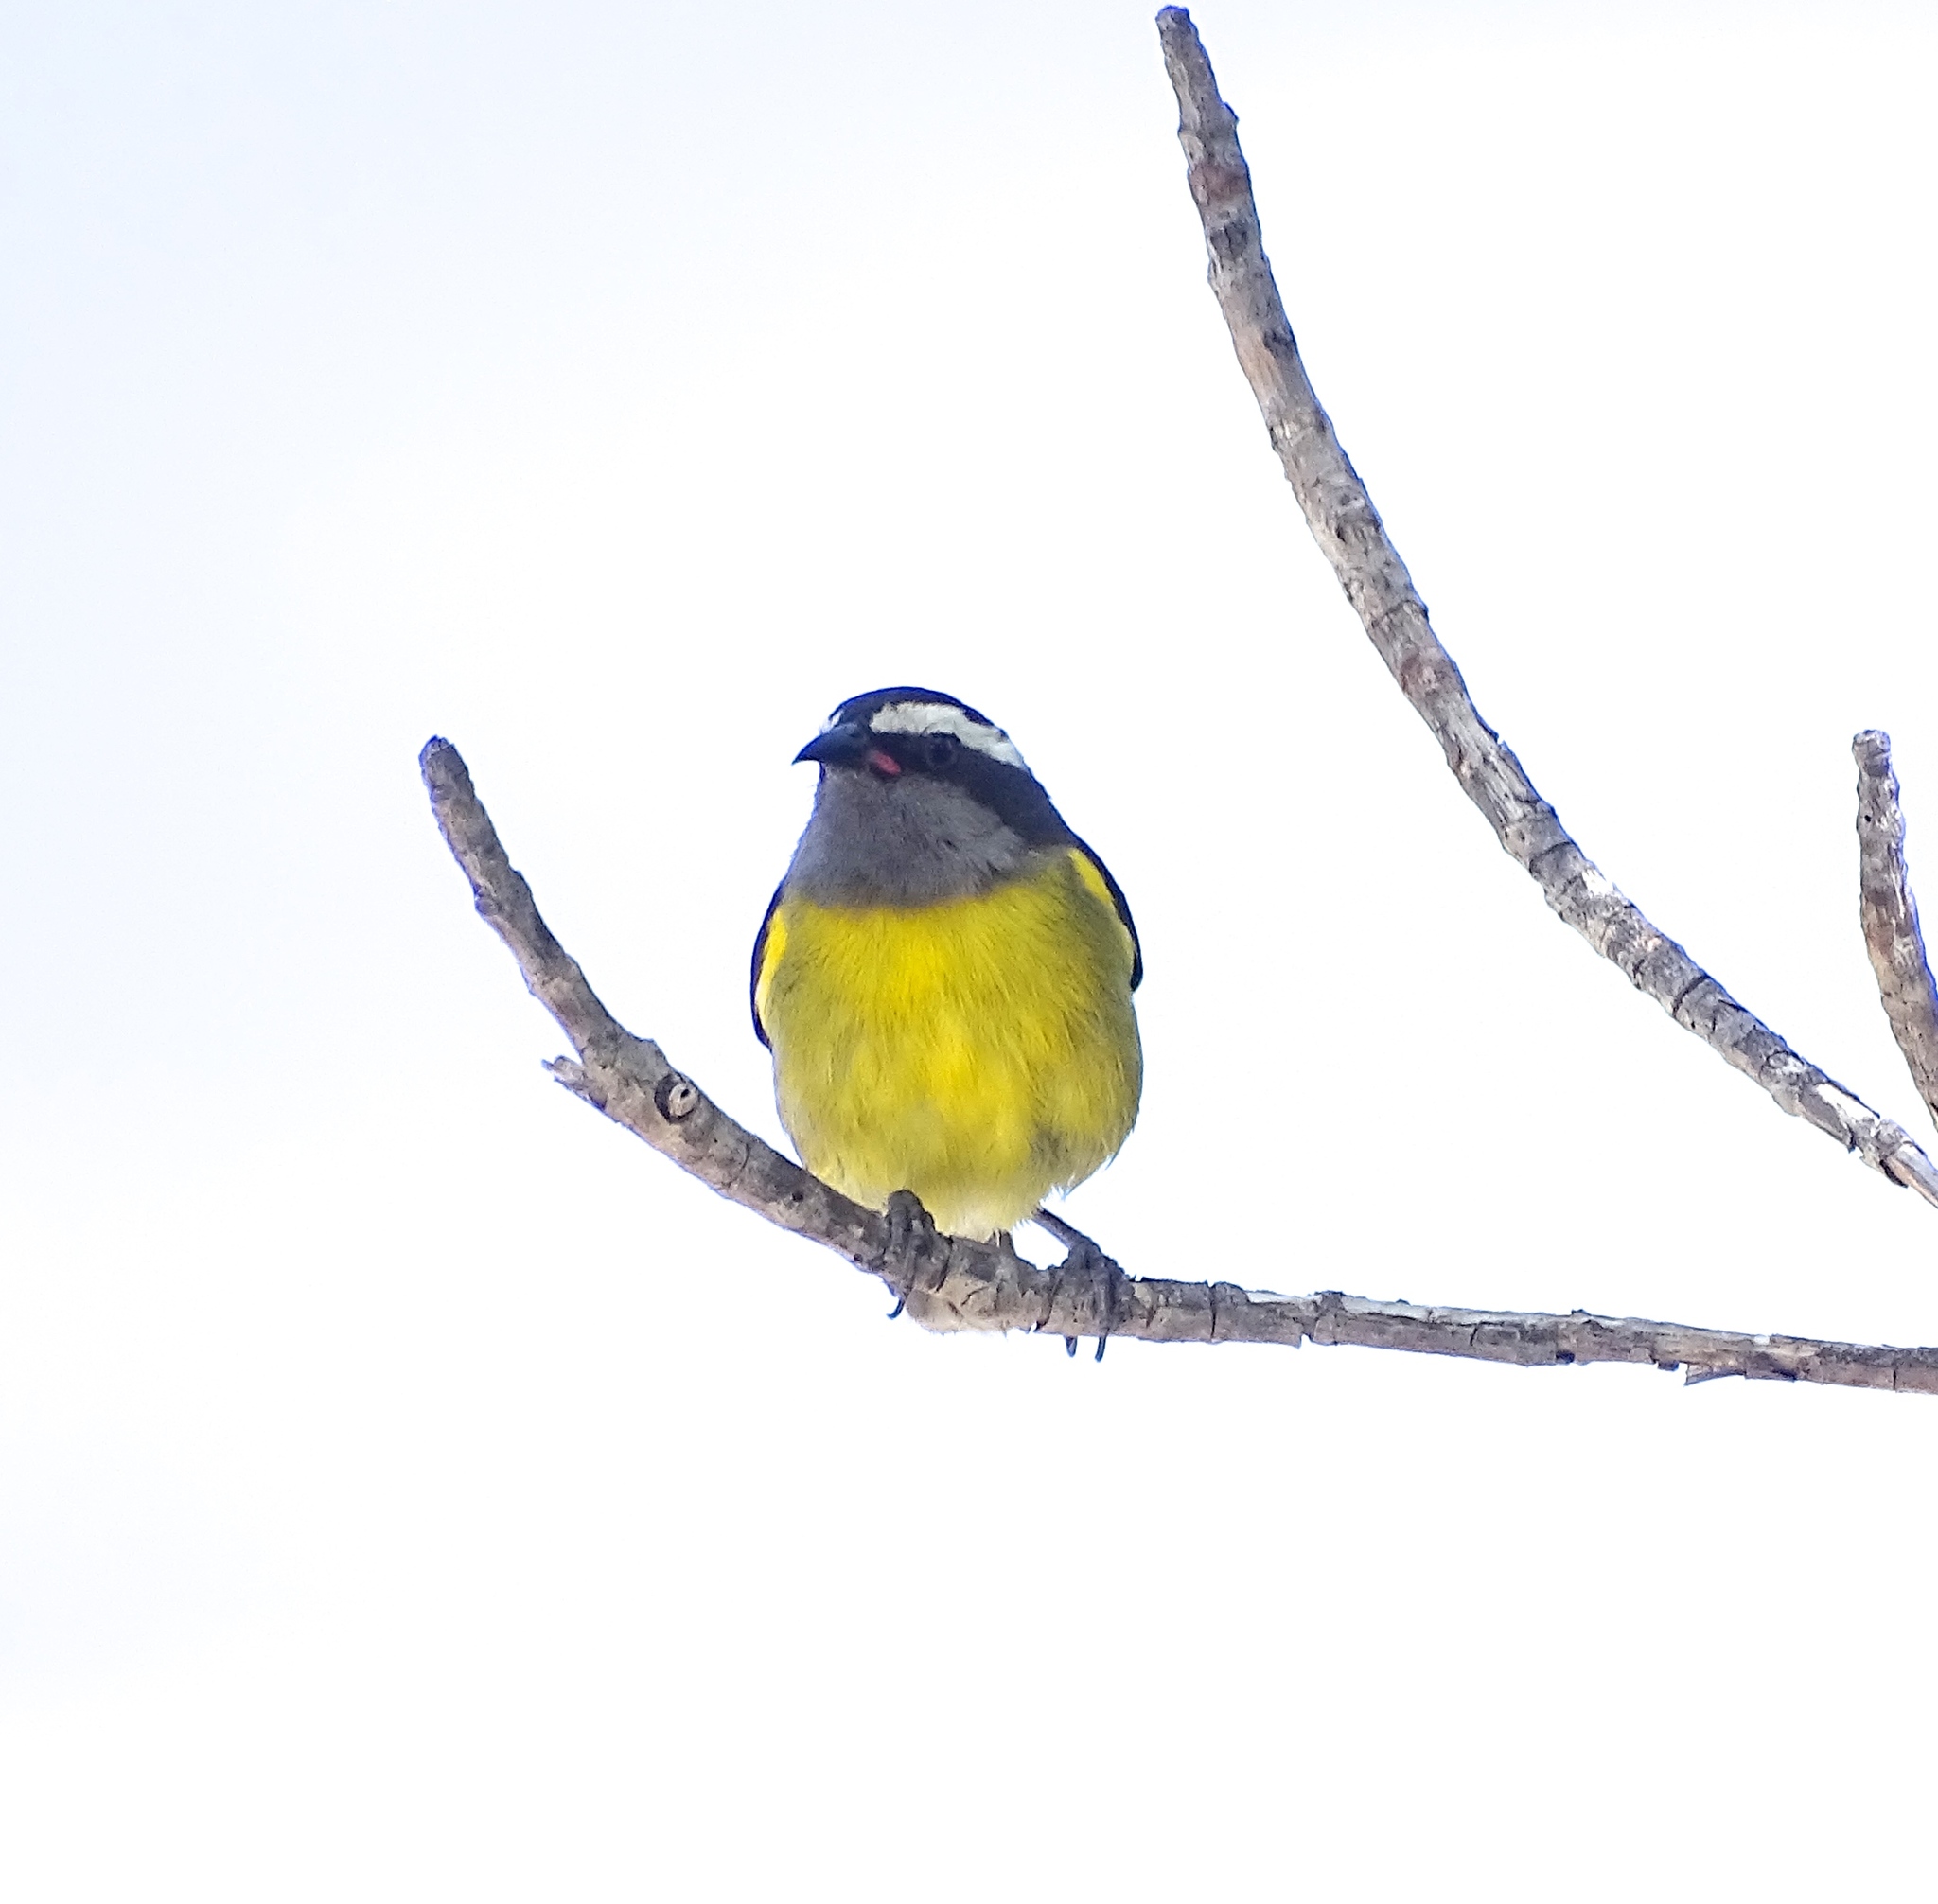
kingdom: Animalia
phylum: Chordata
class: Aves
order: Passeriformes
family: Thraupidae
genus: Coereba
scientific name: Coereba flaveola
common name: Bananaquit
